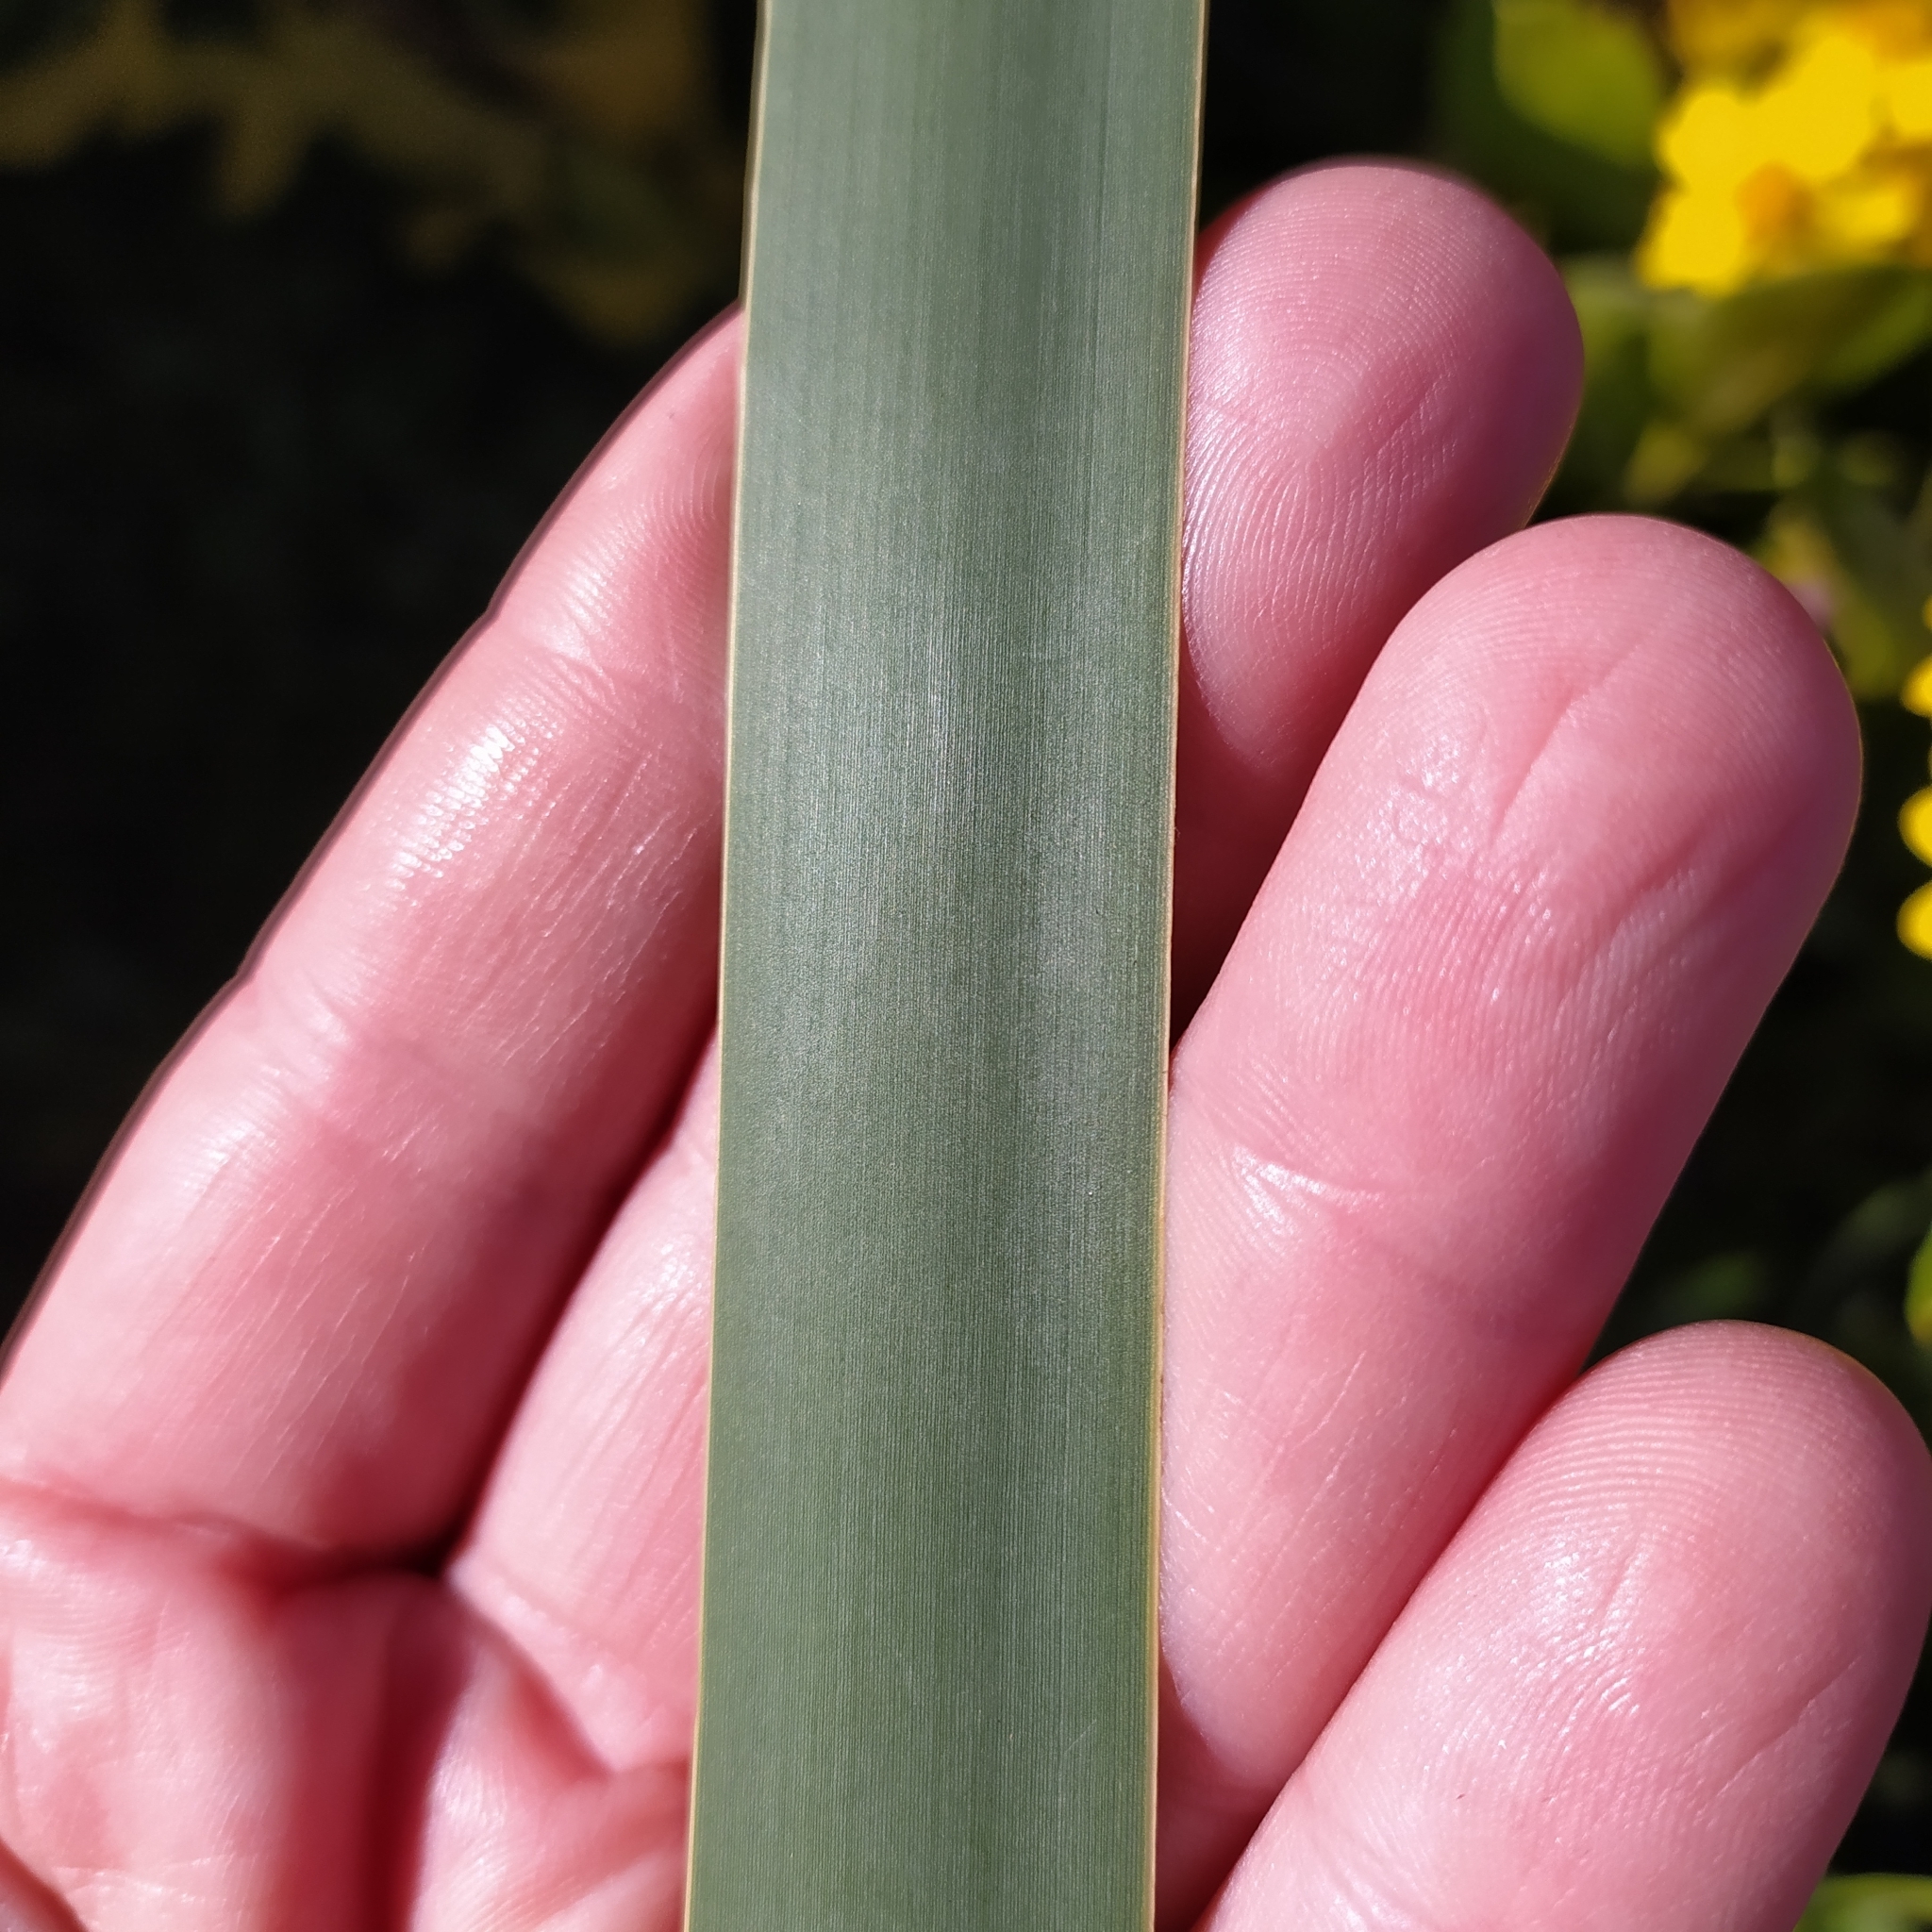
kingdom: Plantae
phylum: Tracheophyta
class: Liliopsida
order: Poales
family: Typhaceae
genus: Typha
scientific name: Typha capensis
